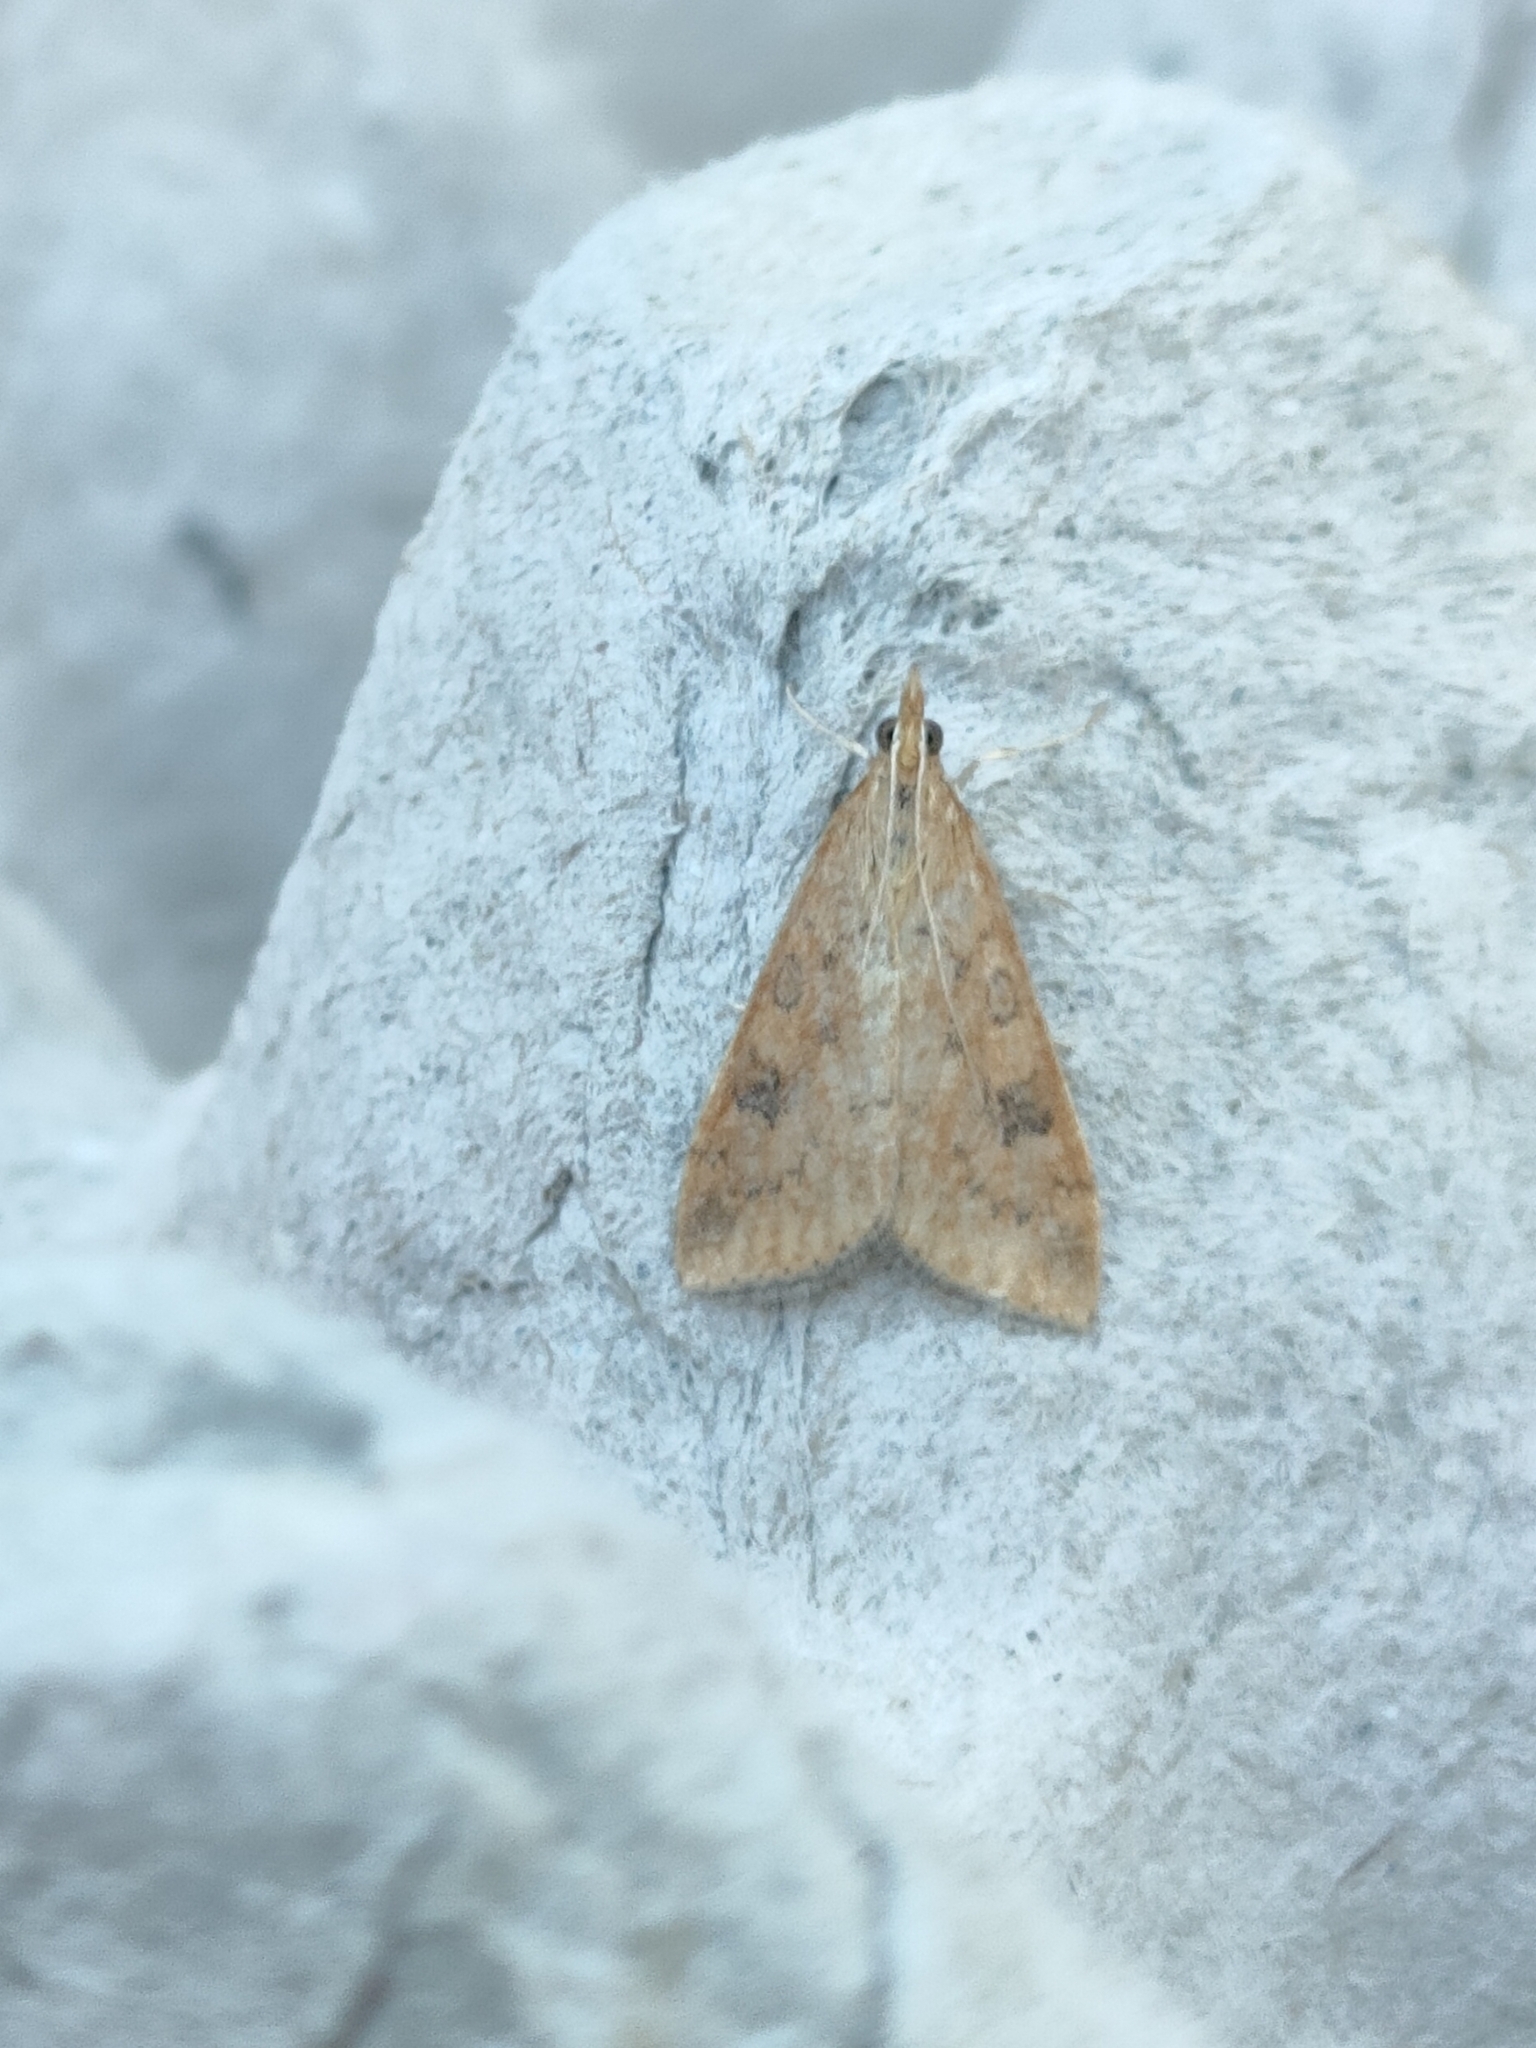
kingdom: Animalia
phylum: Arthropoda
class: Insecta
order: Lepidoptera
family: Crambidae
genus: Udea
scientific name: Udea ferrugalis
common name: Rusty dot
